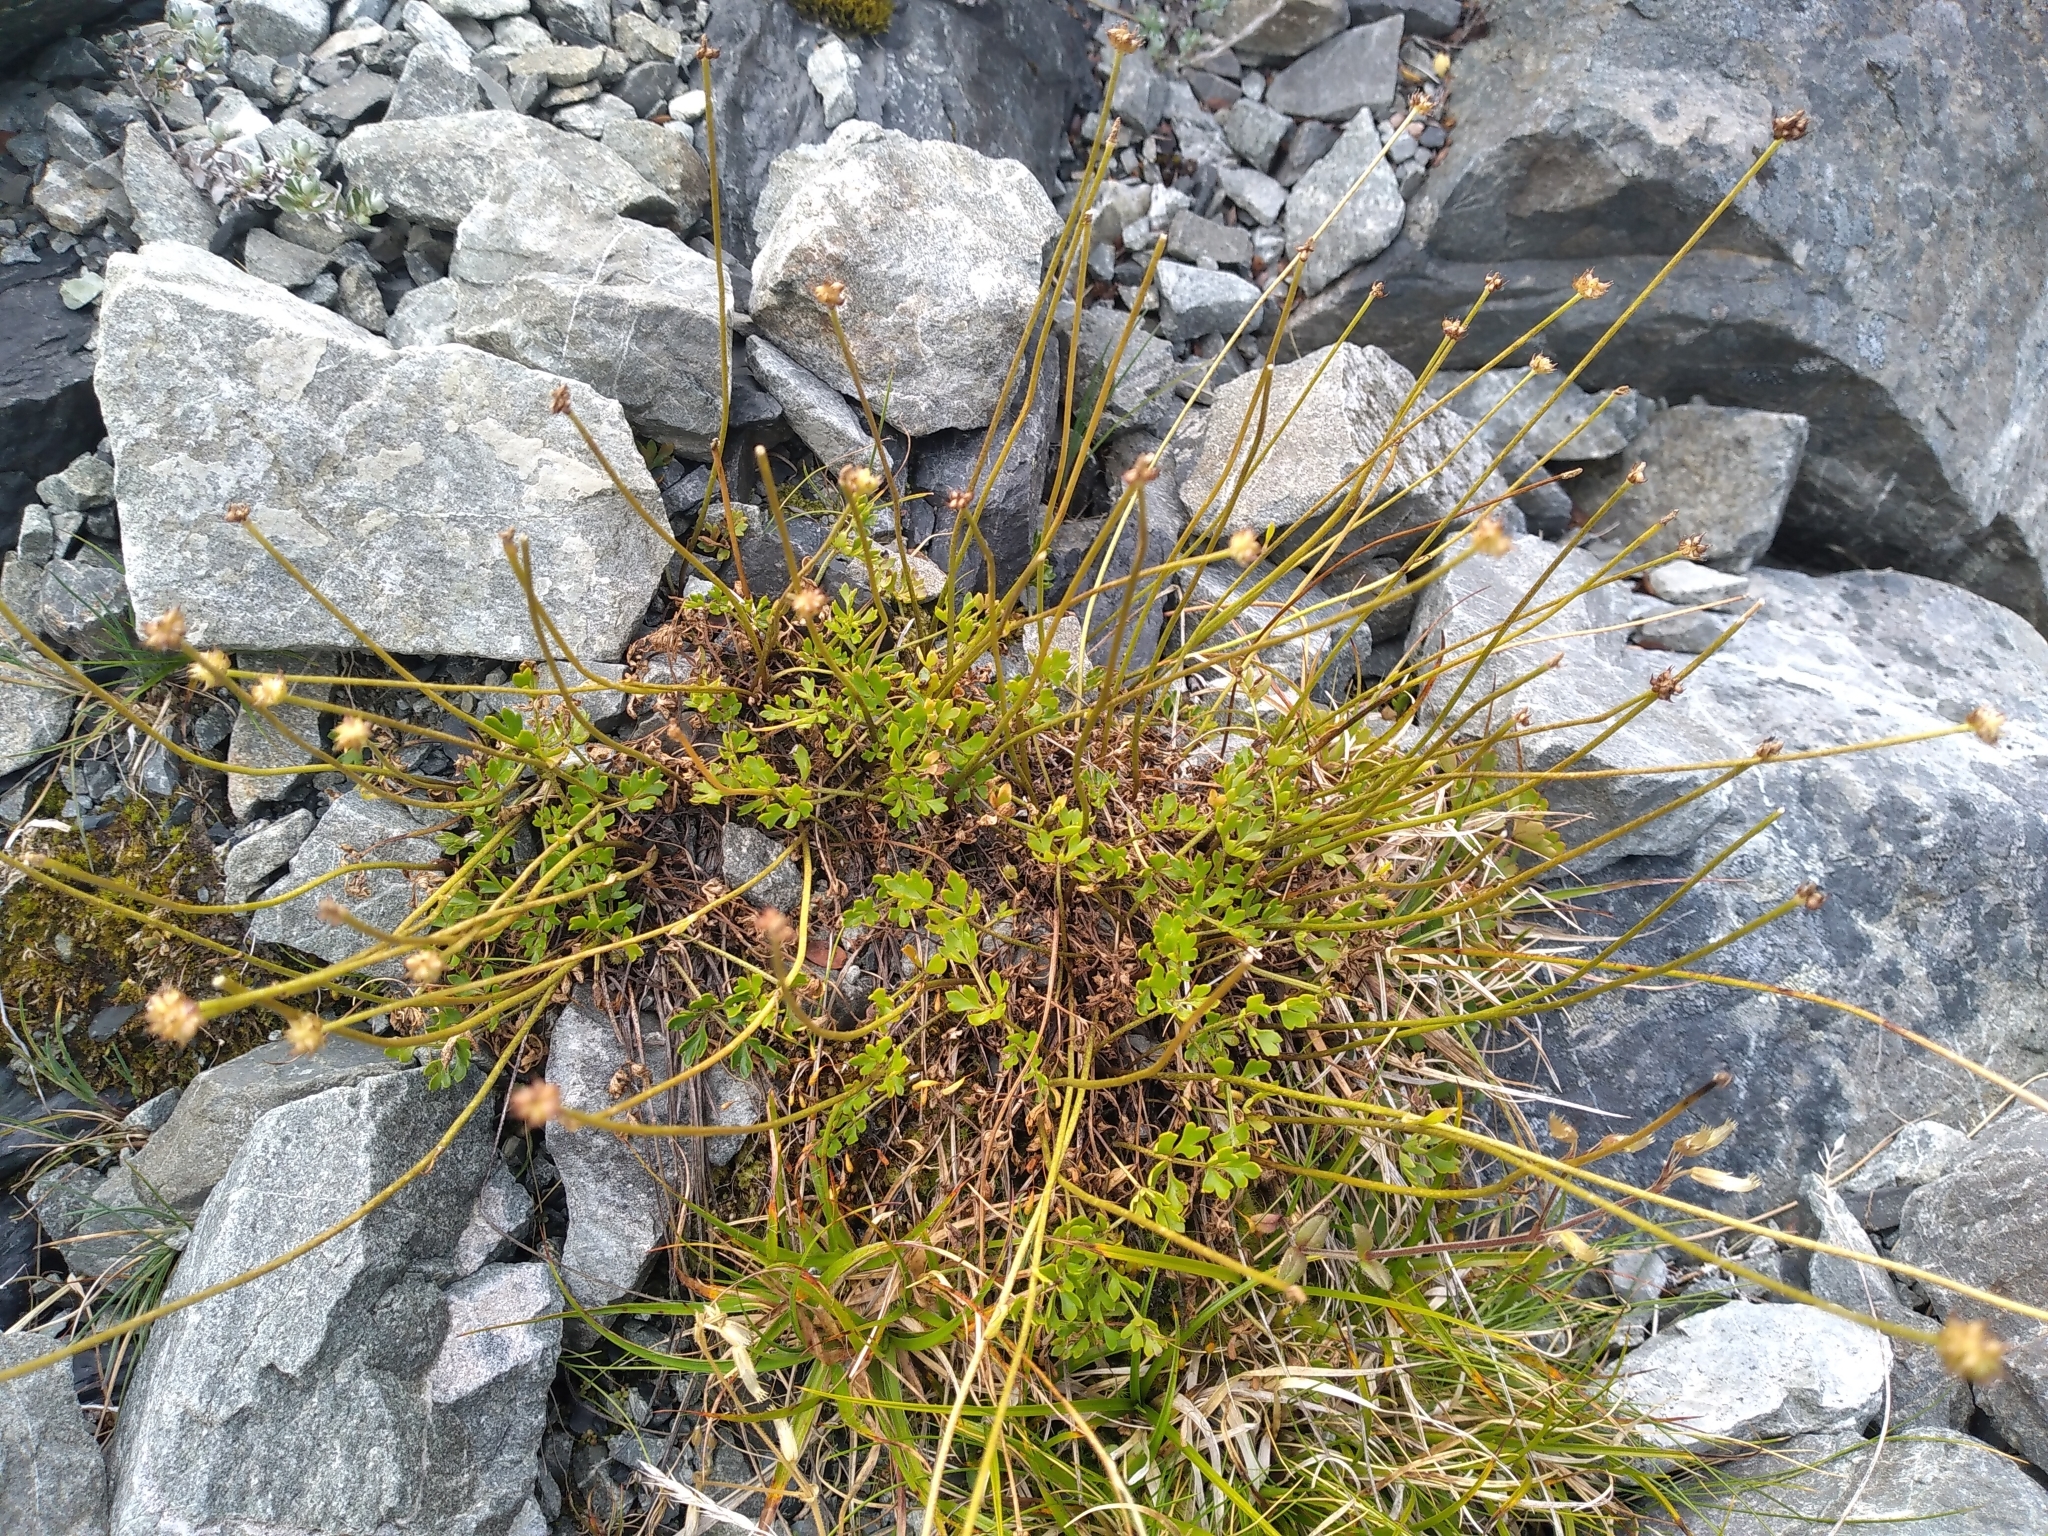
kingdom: Plantae
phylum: Tracheophyta
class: Magnoliopsida
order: Ranunculales
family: Ranunculaceae
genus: Ranunculus
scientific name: Ranunculus enysii
